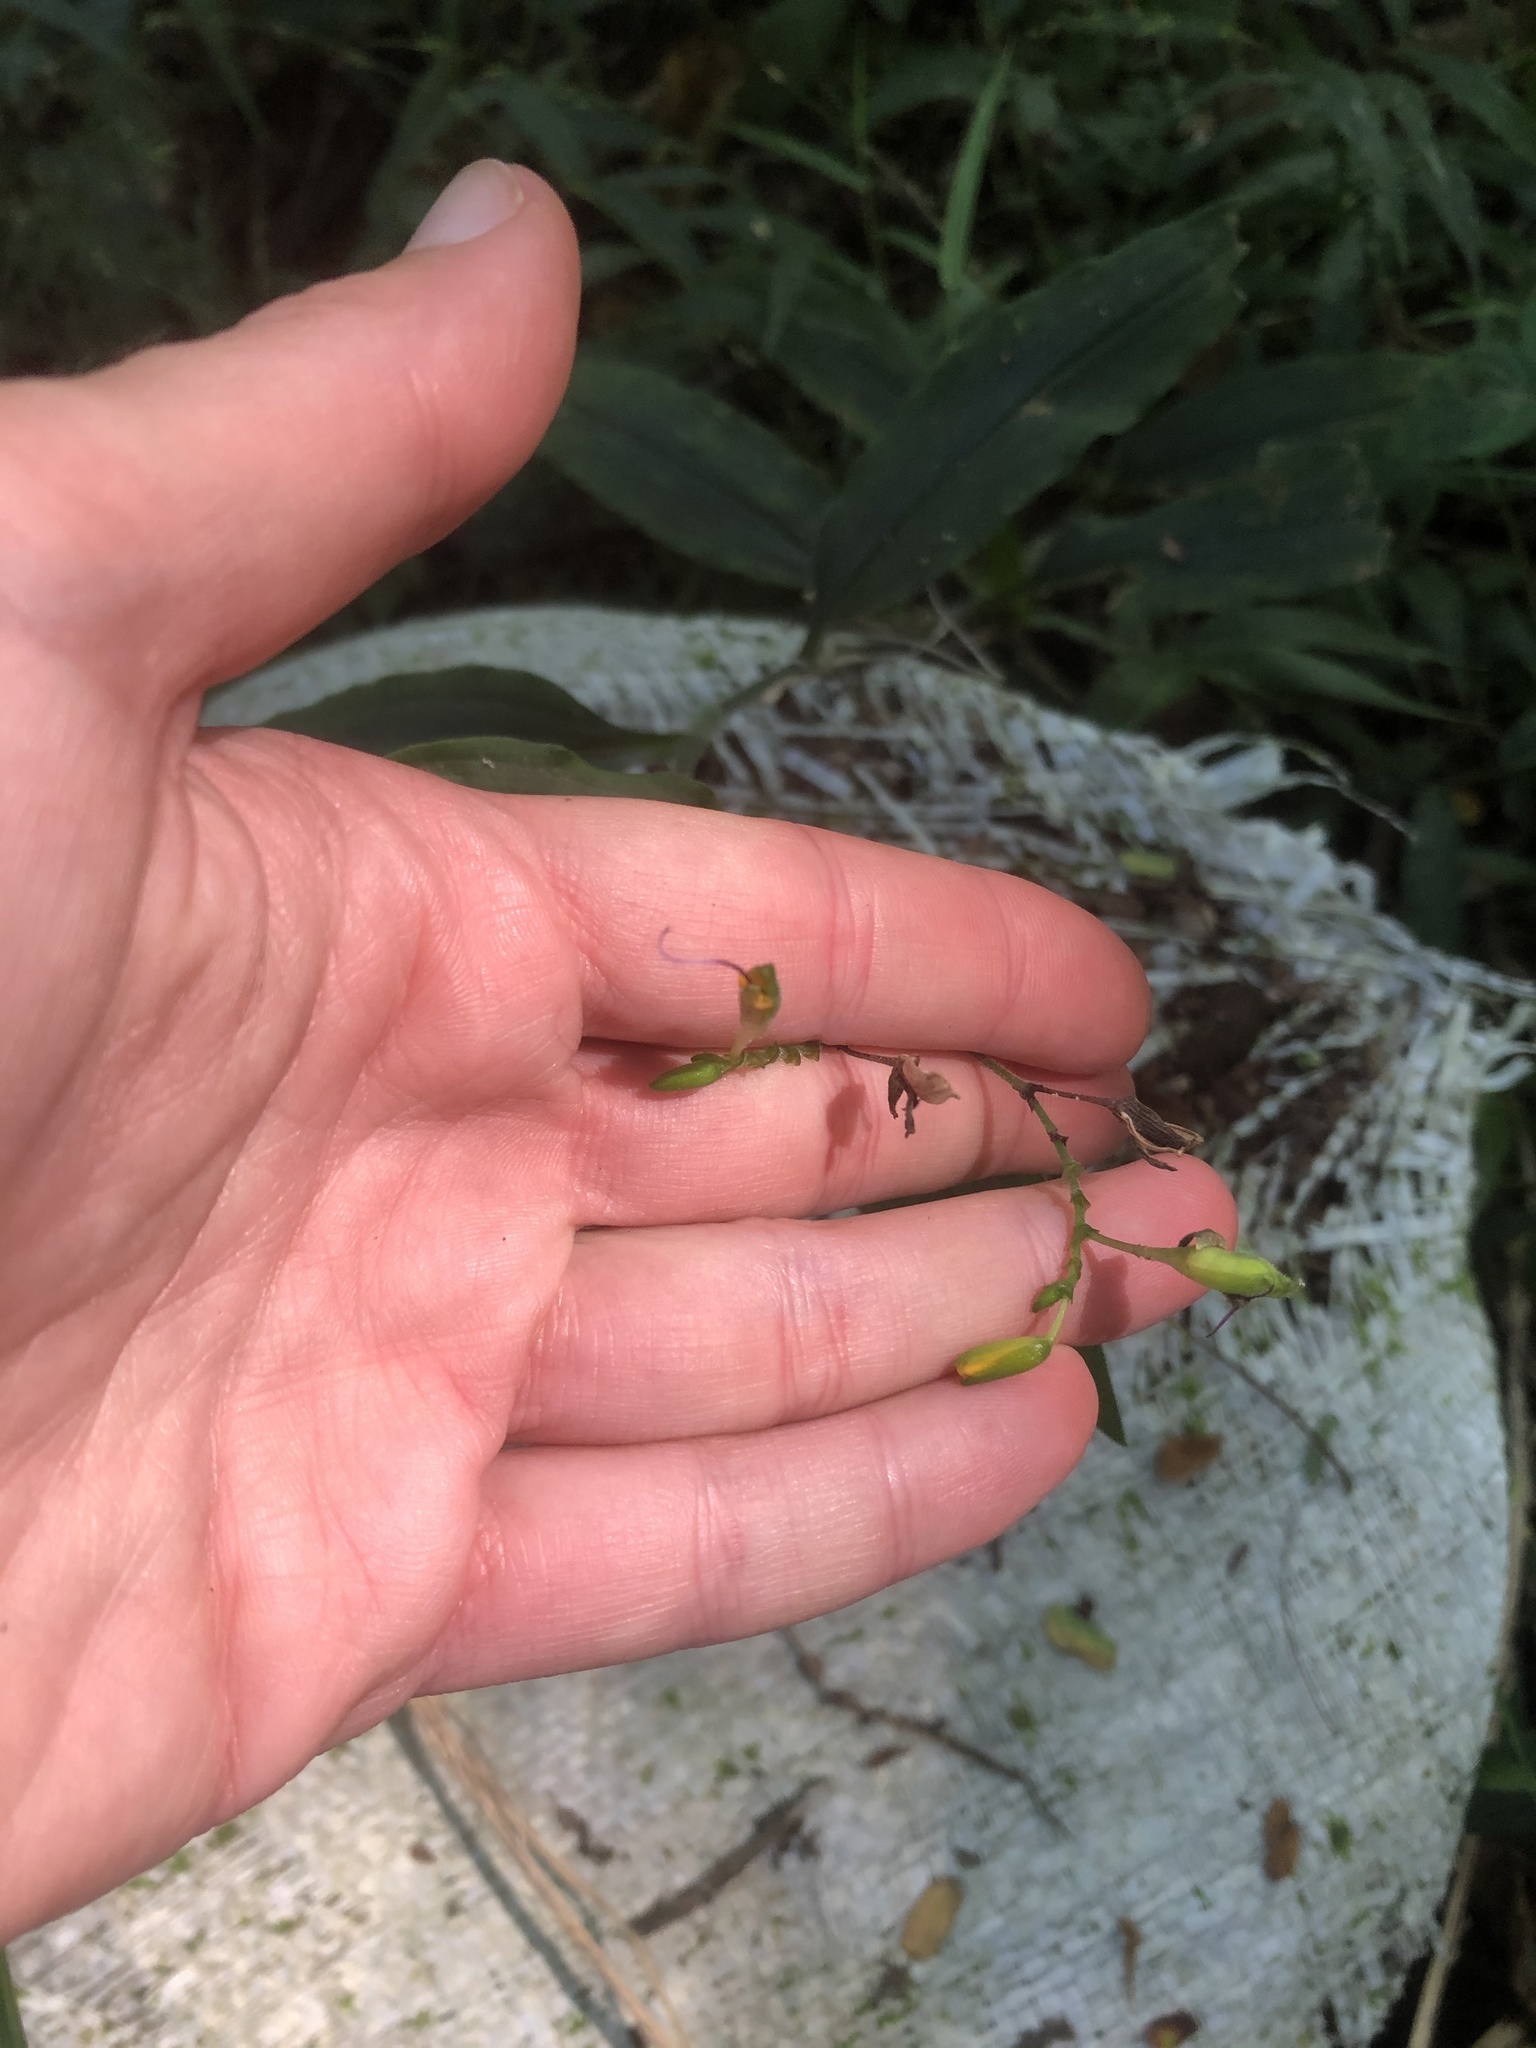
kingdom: Plantae
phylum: Tracheophyta
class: Liliopsida
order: Commelinales
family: Commelinaceae
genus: Aneilema
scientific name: Aneilema aequinoctiale
